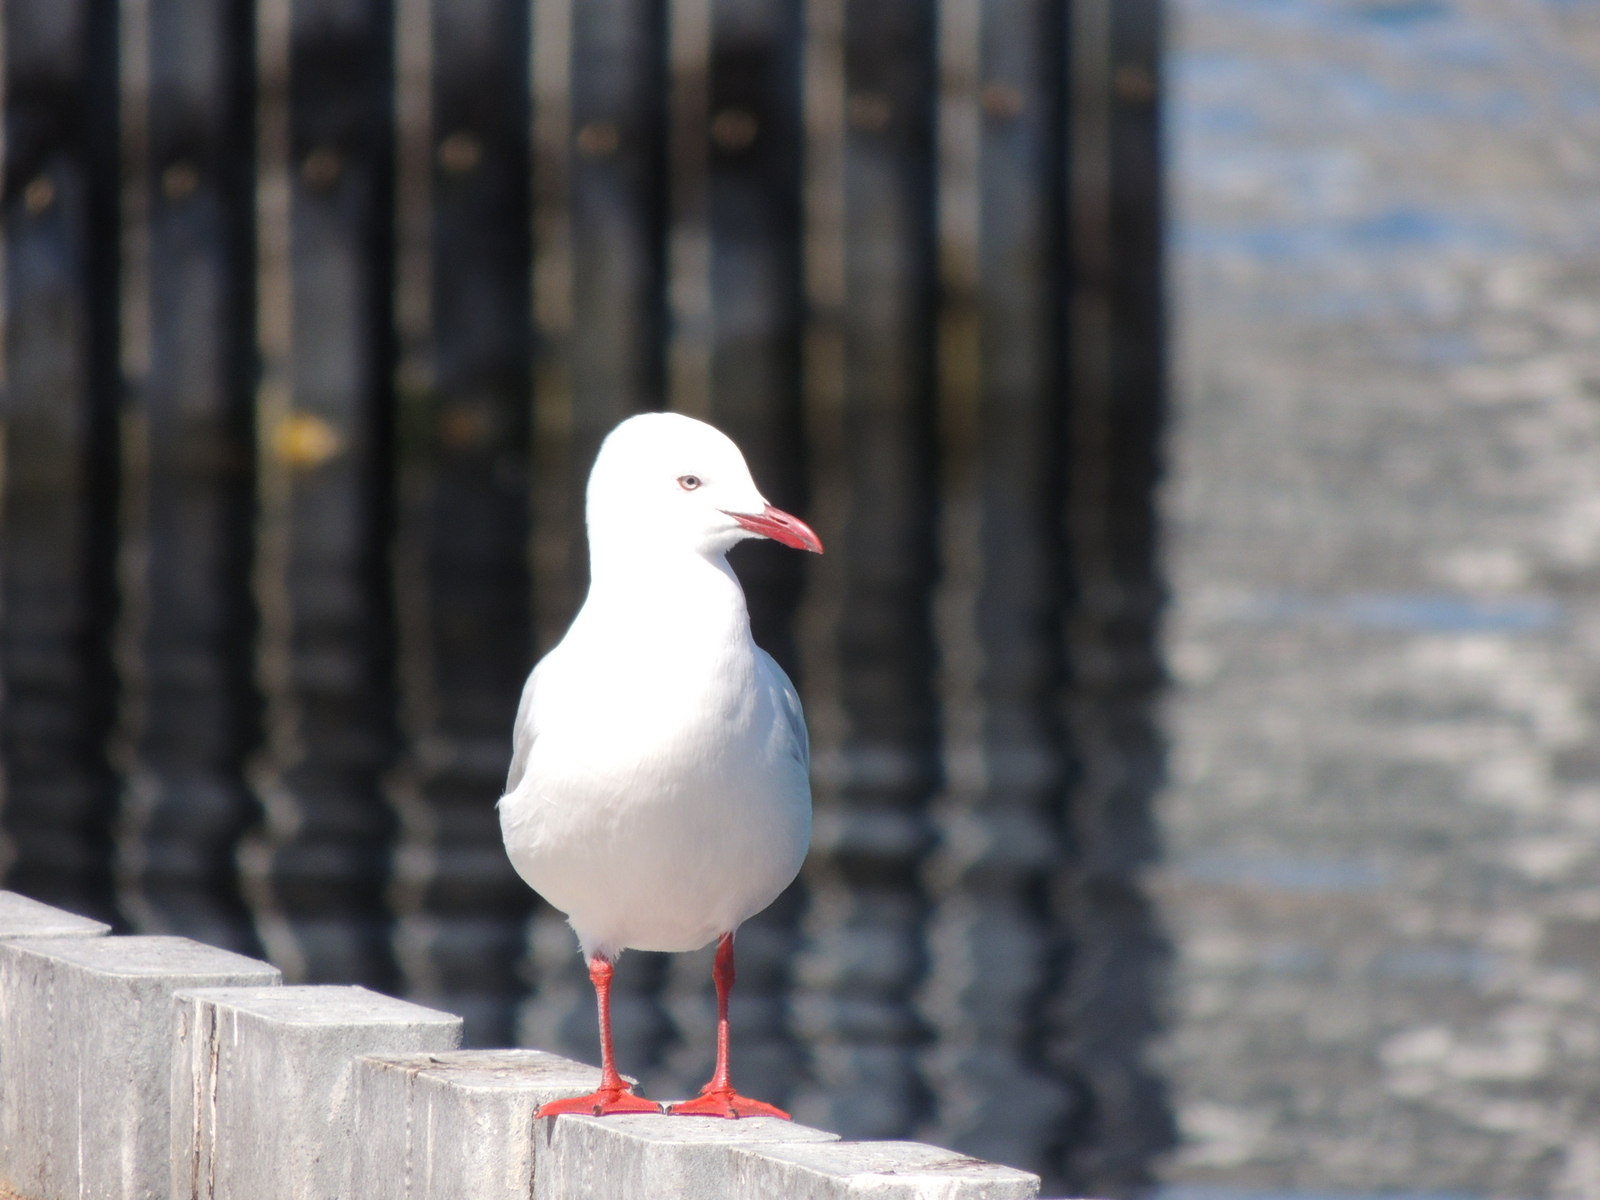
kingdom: Animalia
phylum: Chordata
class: Aves
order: Charadriiformes
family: Laridae
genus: Chroicocephalus
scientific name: Chroicocephalus novaehollandiae
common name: Silver gull
